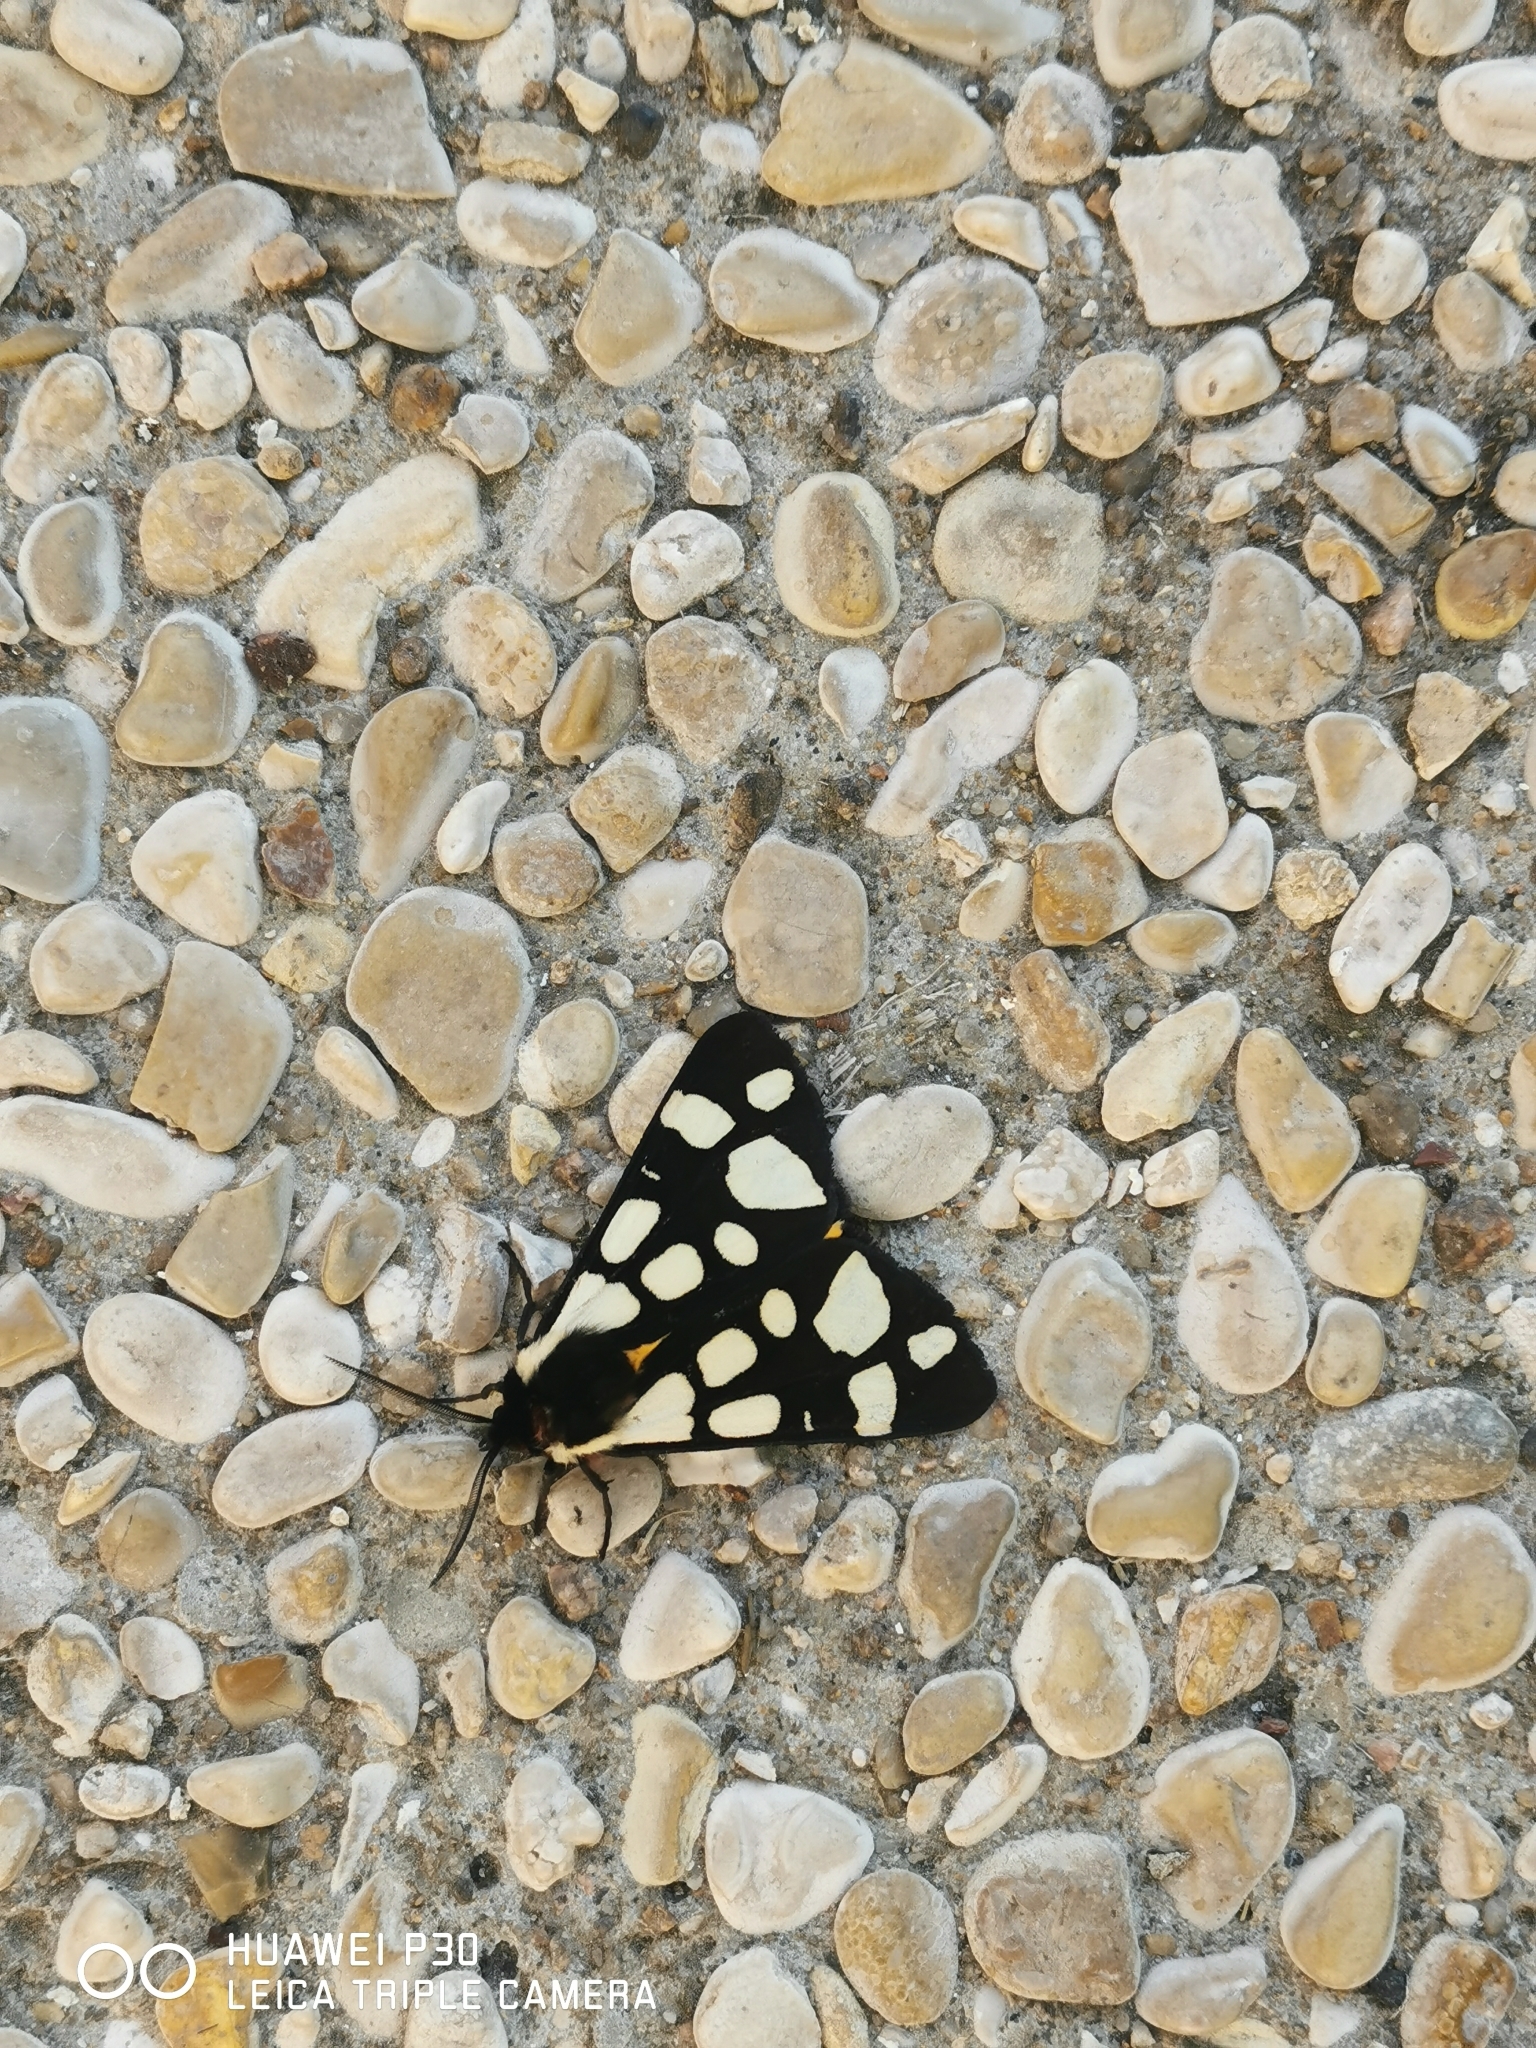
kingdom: Animalia
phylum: Arthropoda
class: Insecta
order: Lepidoptera
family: Erebidae
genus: Epicallia
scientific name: Epicallia villica
